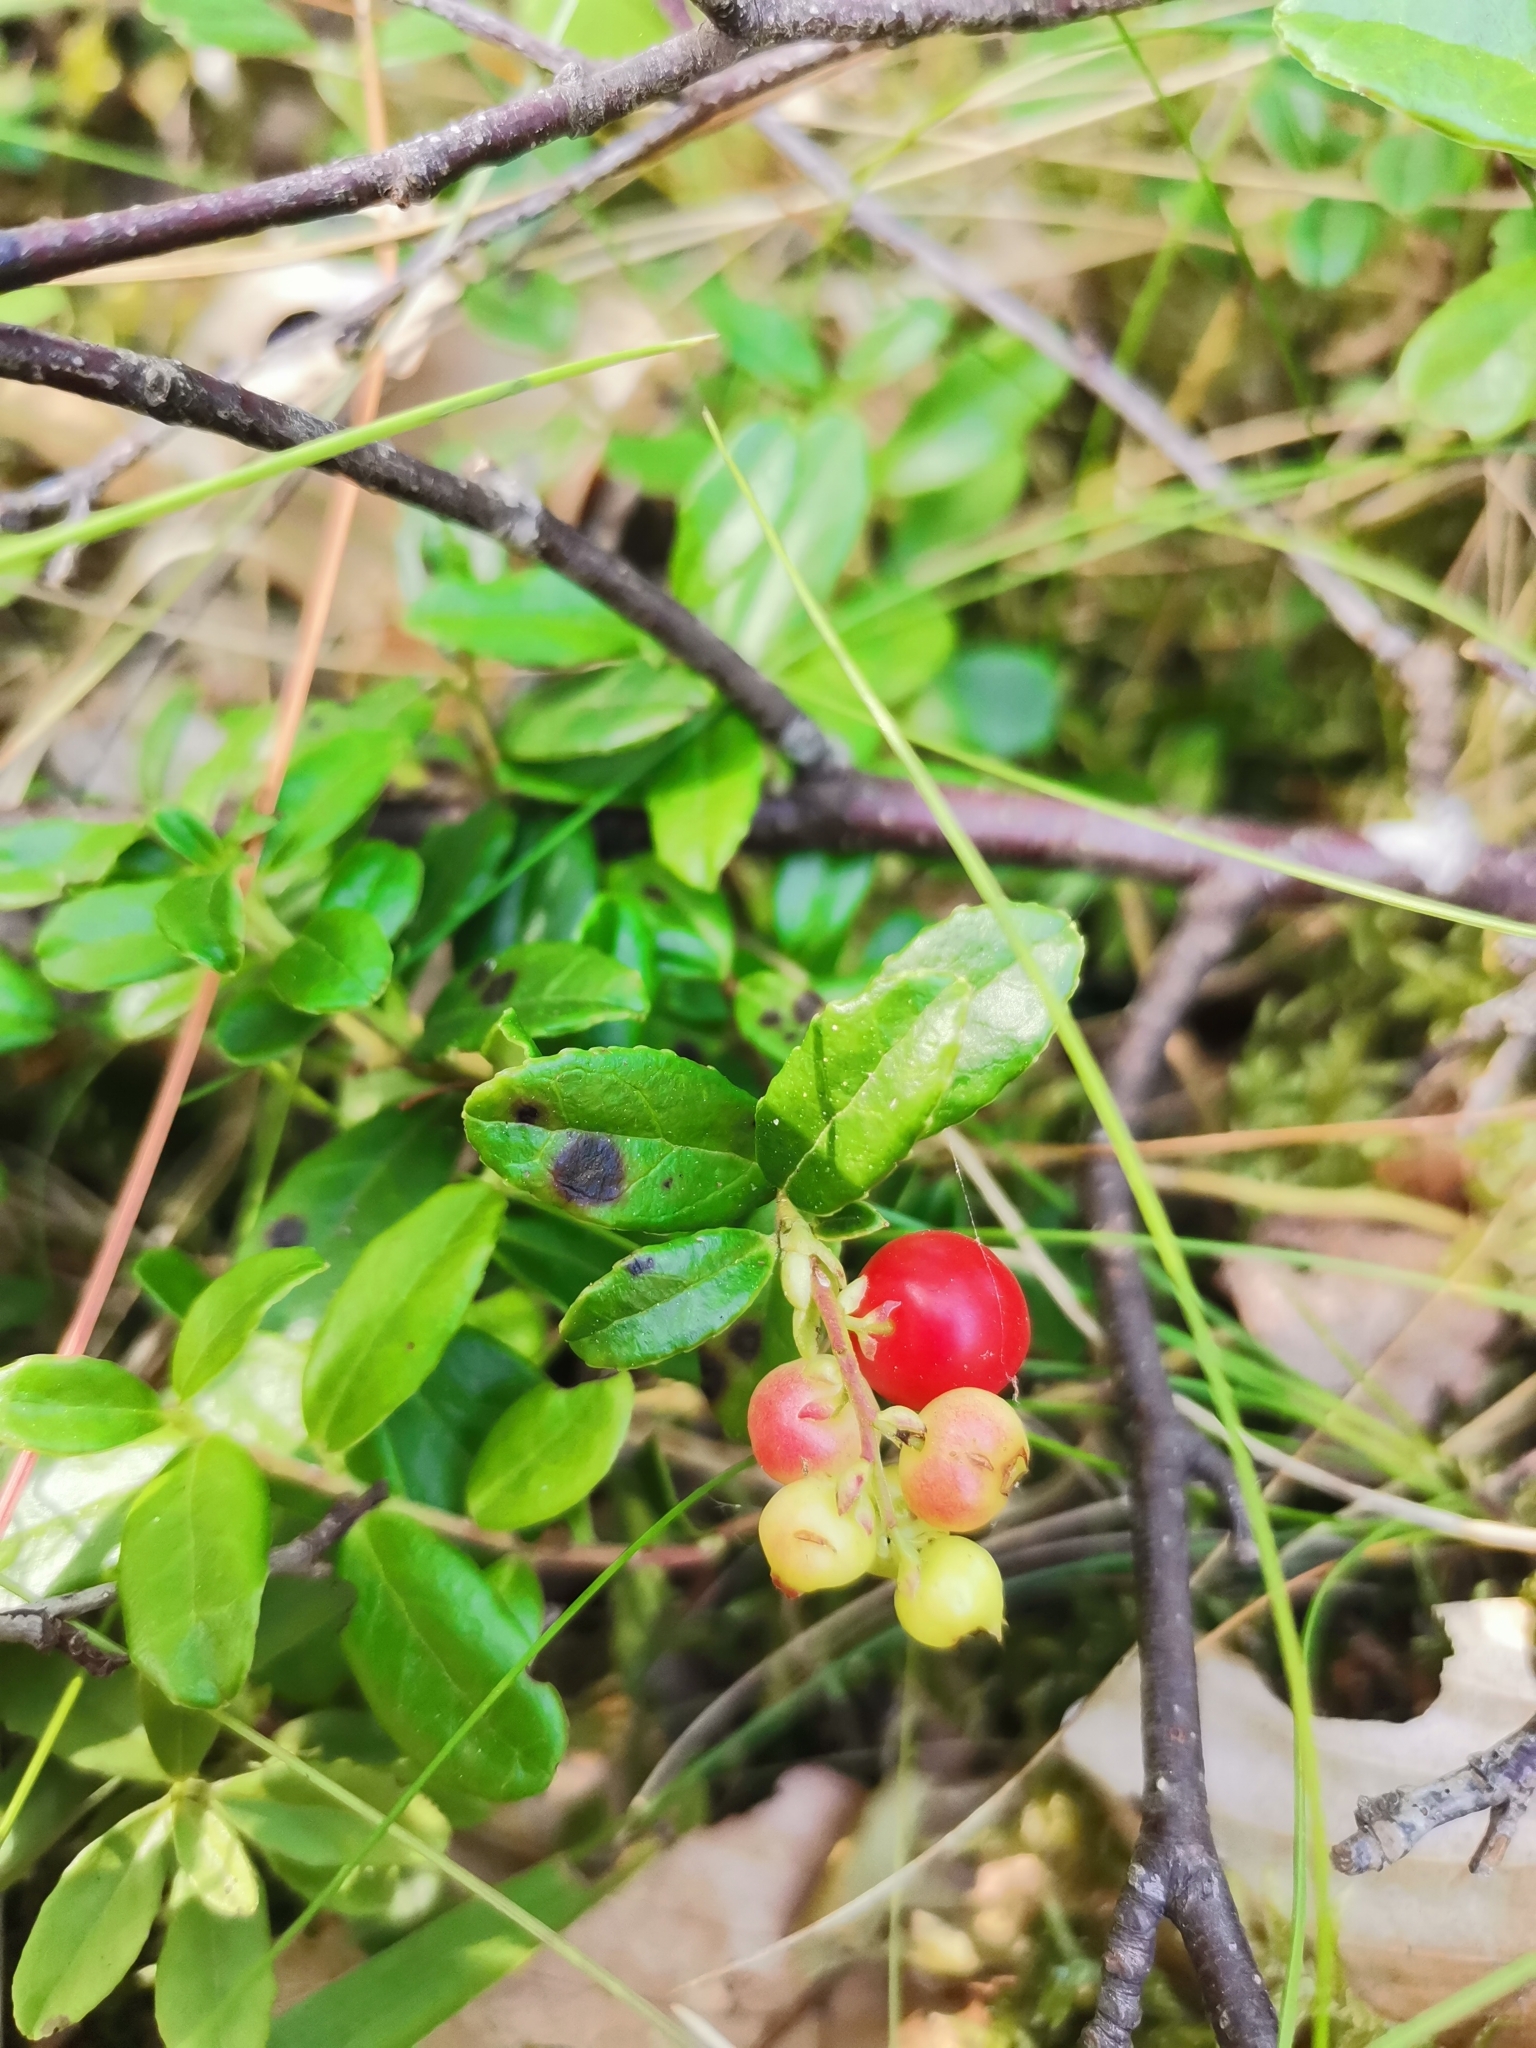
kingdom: Plantae
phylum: Tracheophyta
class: Magnoliopsida
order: Ericales
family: Ericaceae
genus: Vaccinium
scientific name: Vaccinium vitis-idaea
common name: Cowberry
